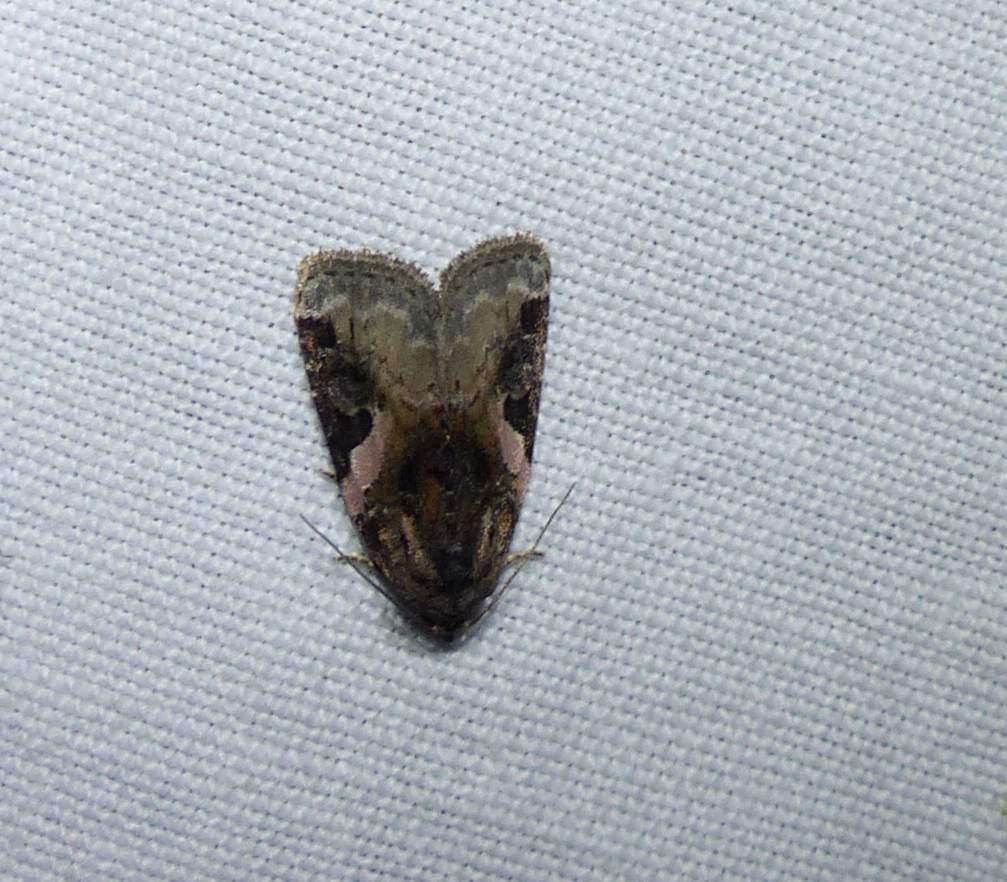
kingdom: Animalia
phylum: Arthropoda
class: Insecta
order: Lepidoptera
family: Noctuidae
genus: Pseudeustrotia
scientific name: Pseudeustrotia carneola
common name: Pink-barred lithacodia moth
